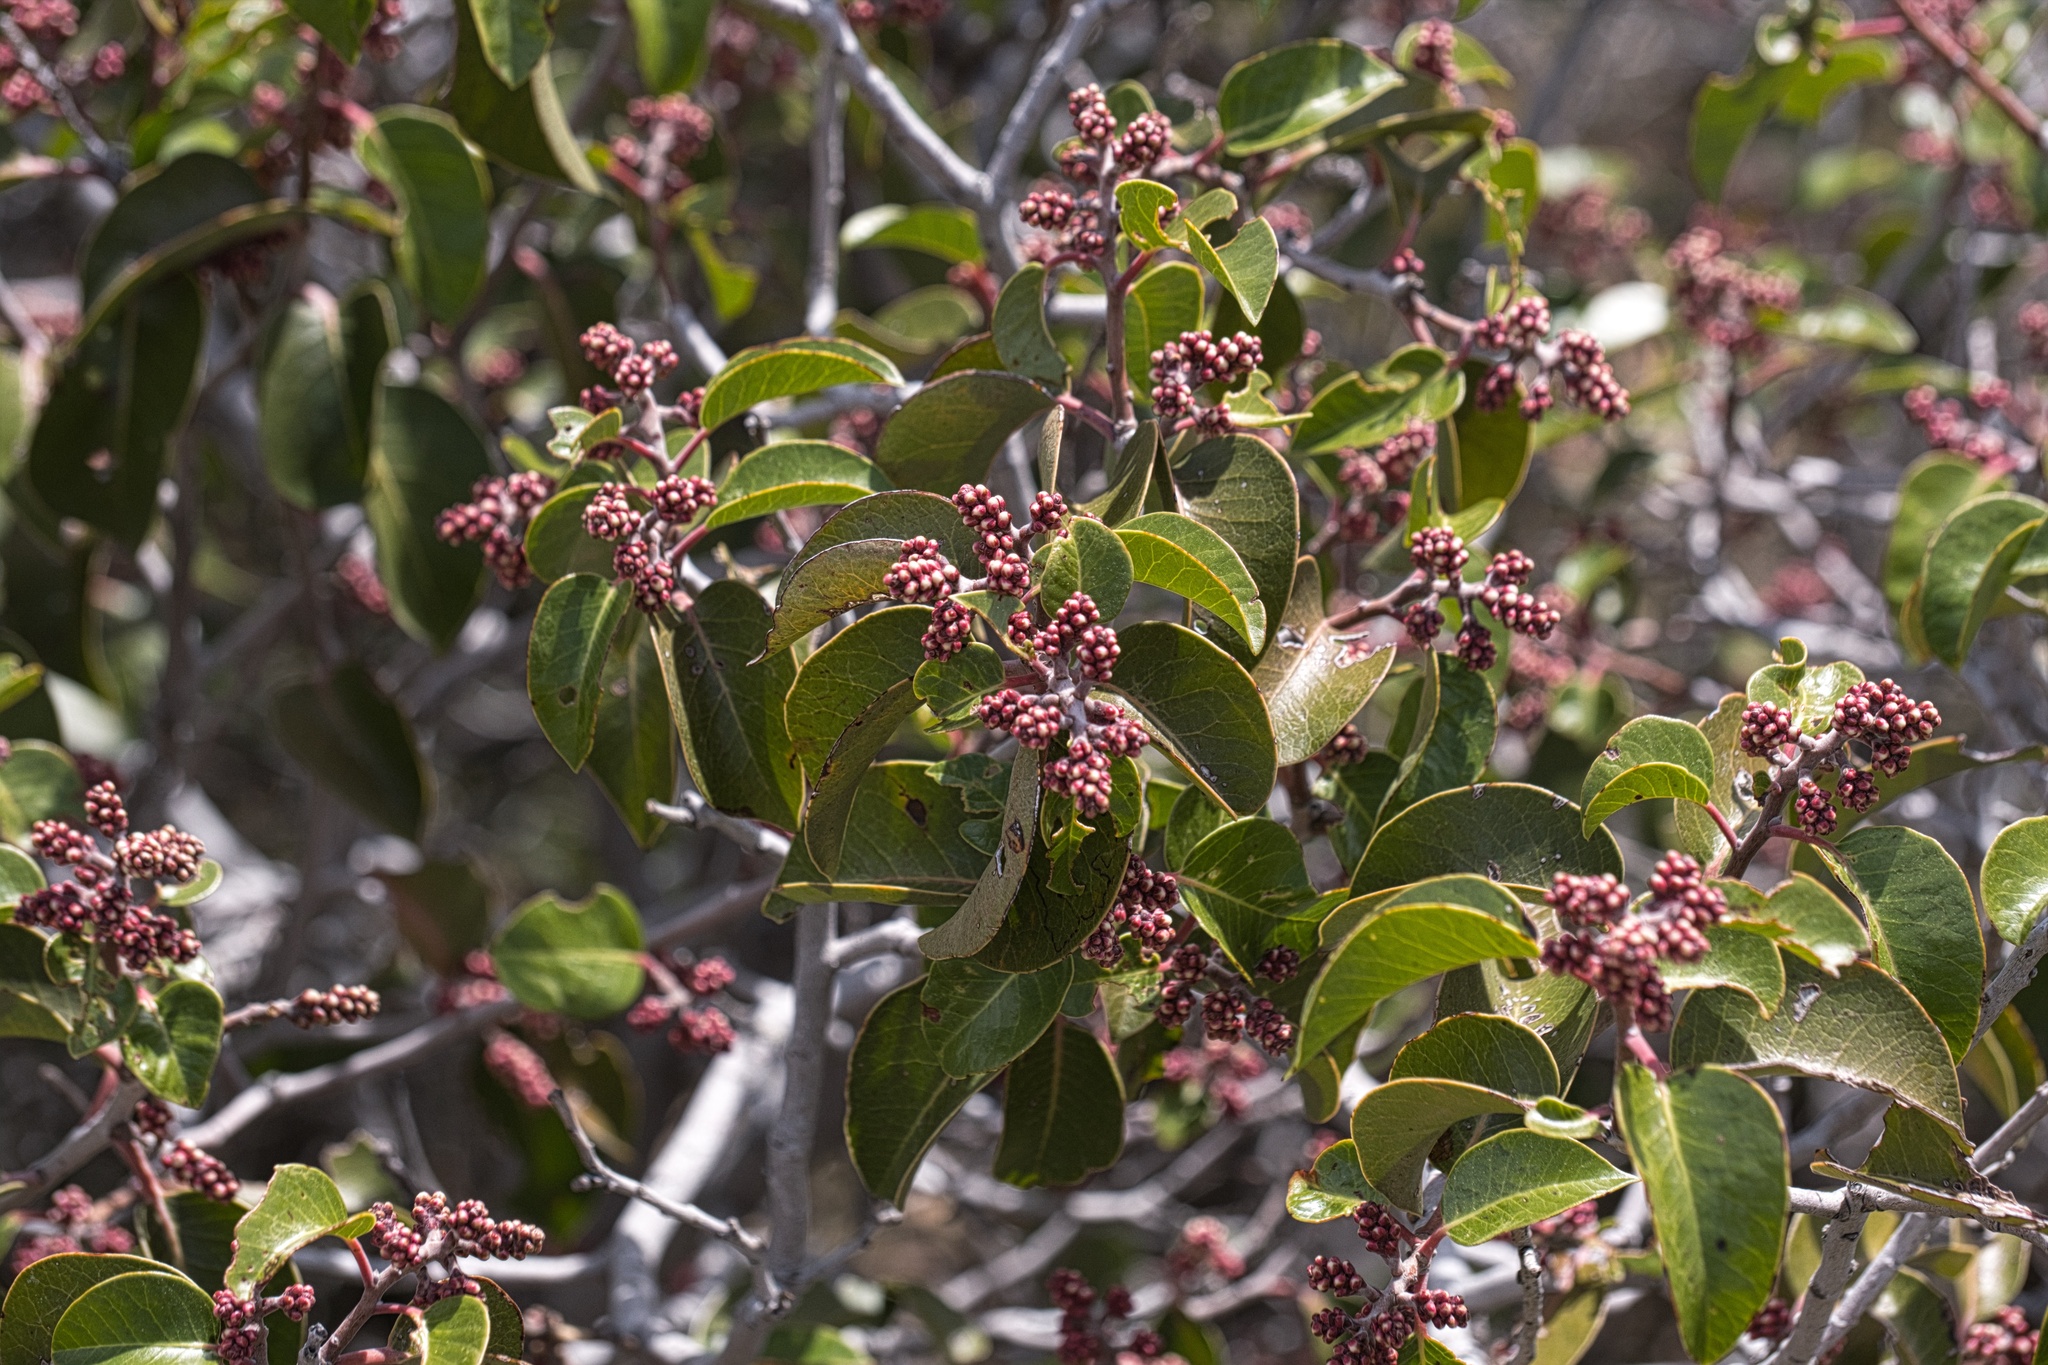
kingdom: Plantae
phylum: Tracheophyta
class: Magnoliopsida
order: Sapindales
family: Anacardiaceae
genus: Rhus
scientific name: Rhus ovata
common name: Sugar sumac
